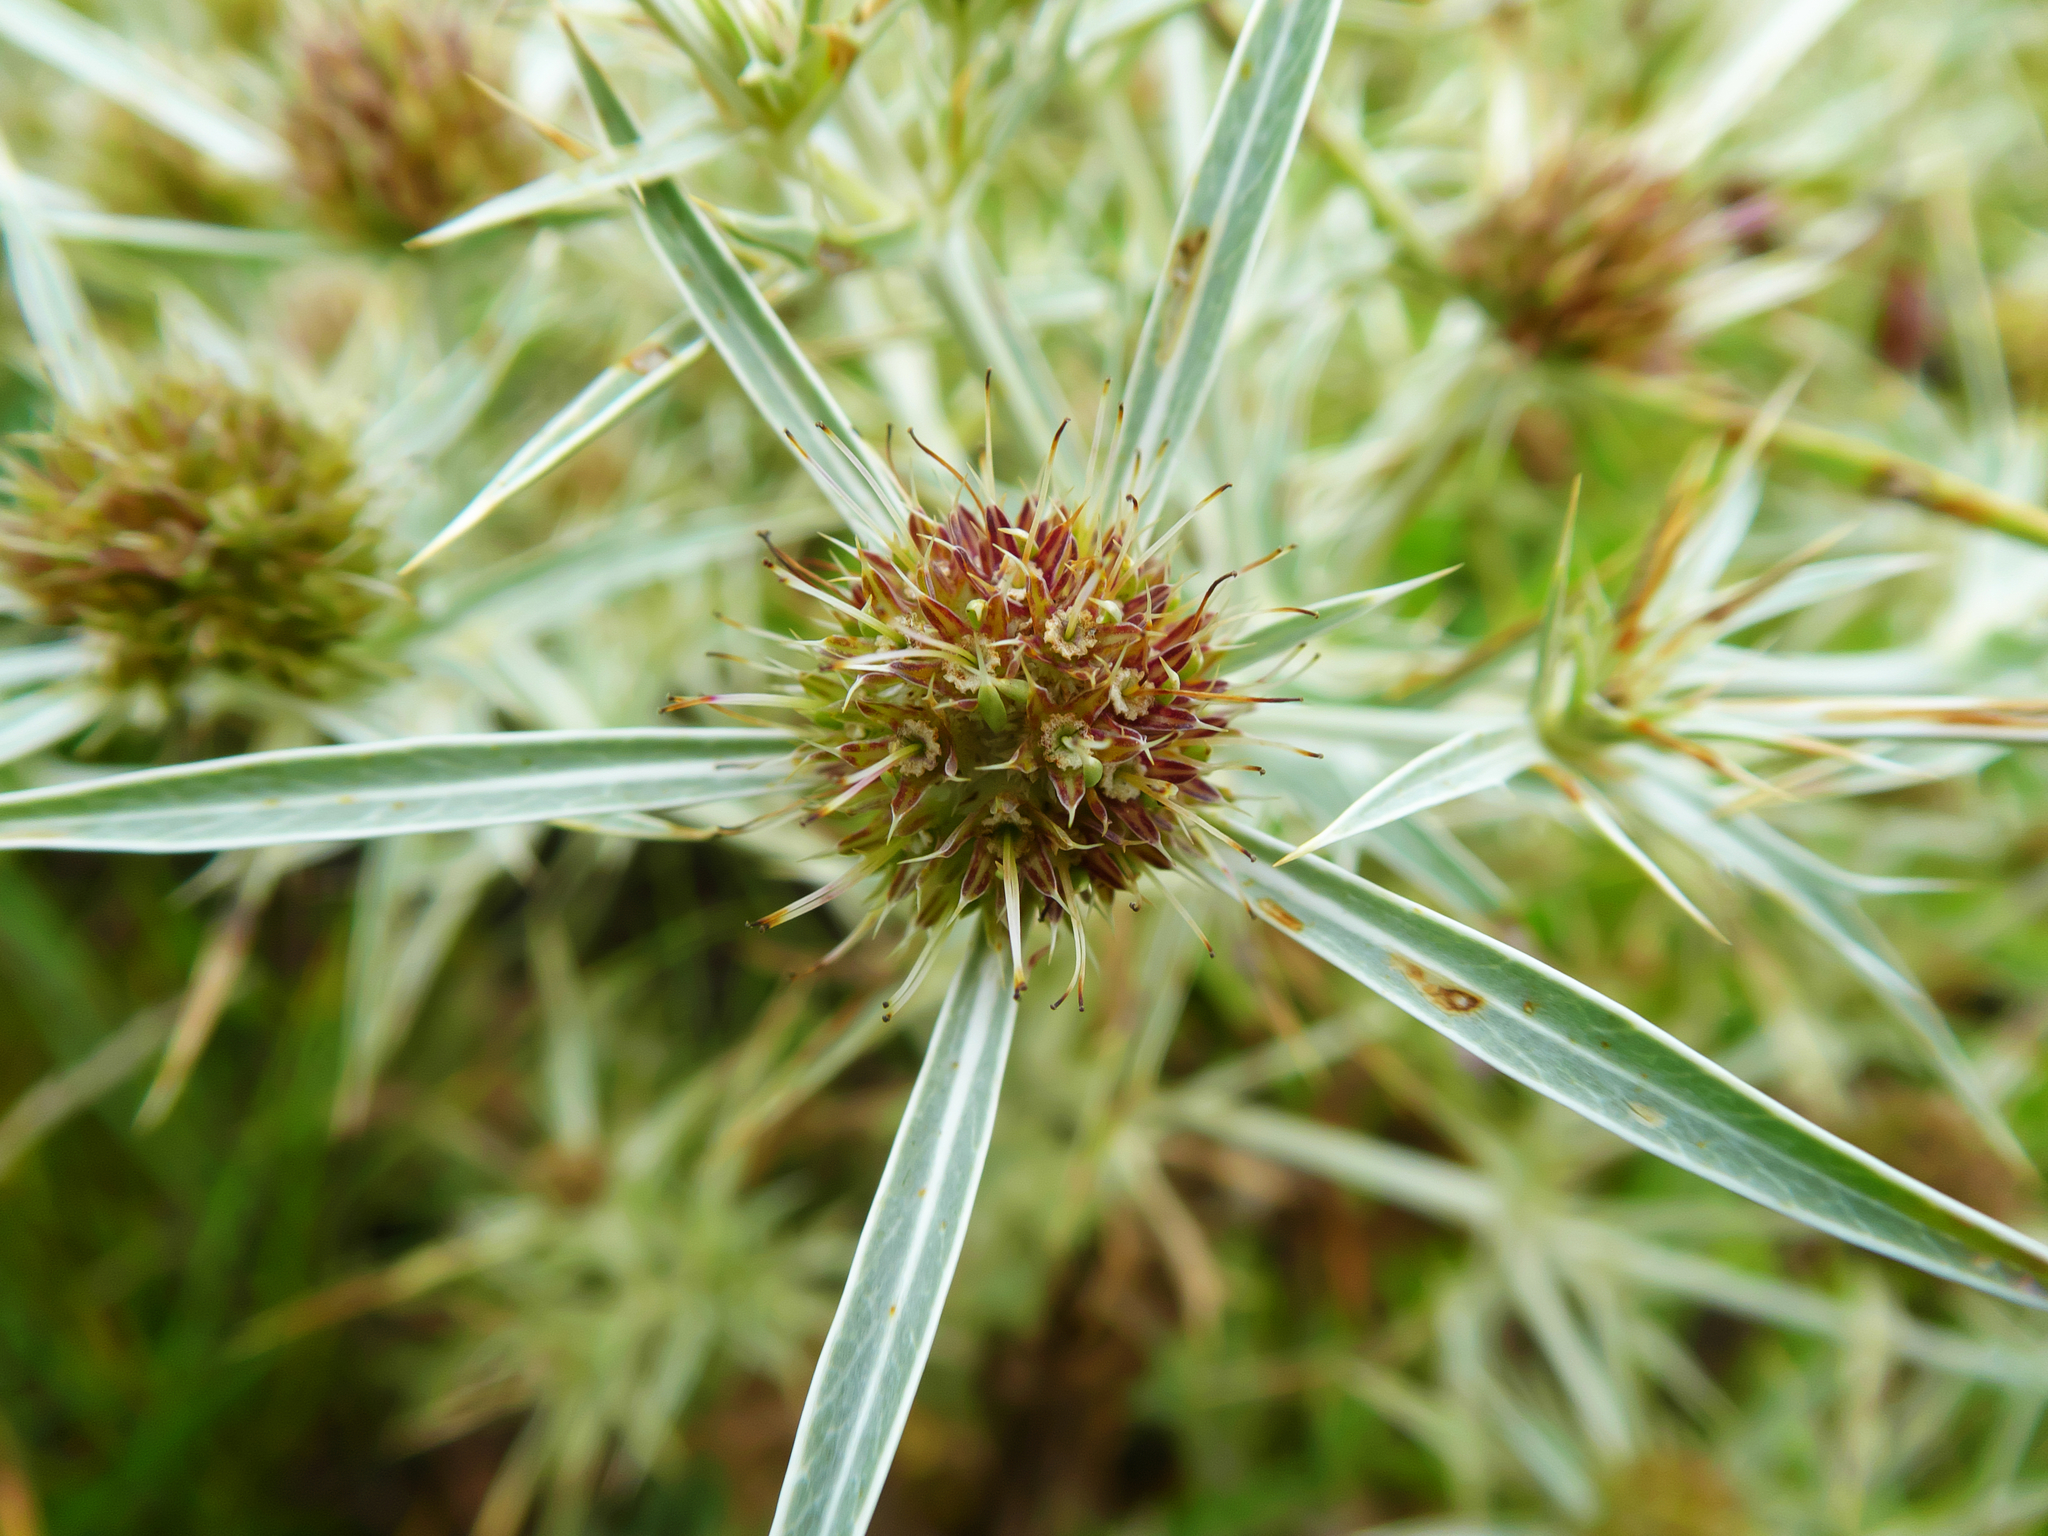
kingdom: Plantae
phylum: Tracheophyta
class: Magnoliopsida
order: Apiales
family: Apiaceae
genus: Eryngium
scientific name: Eryngium campestre
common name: Field eryngo
